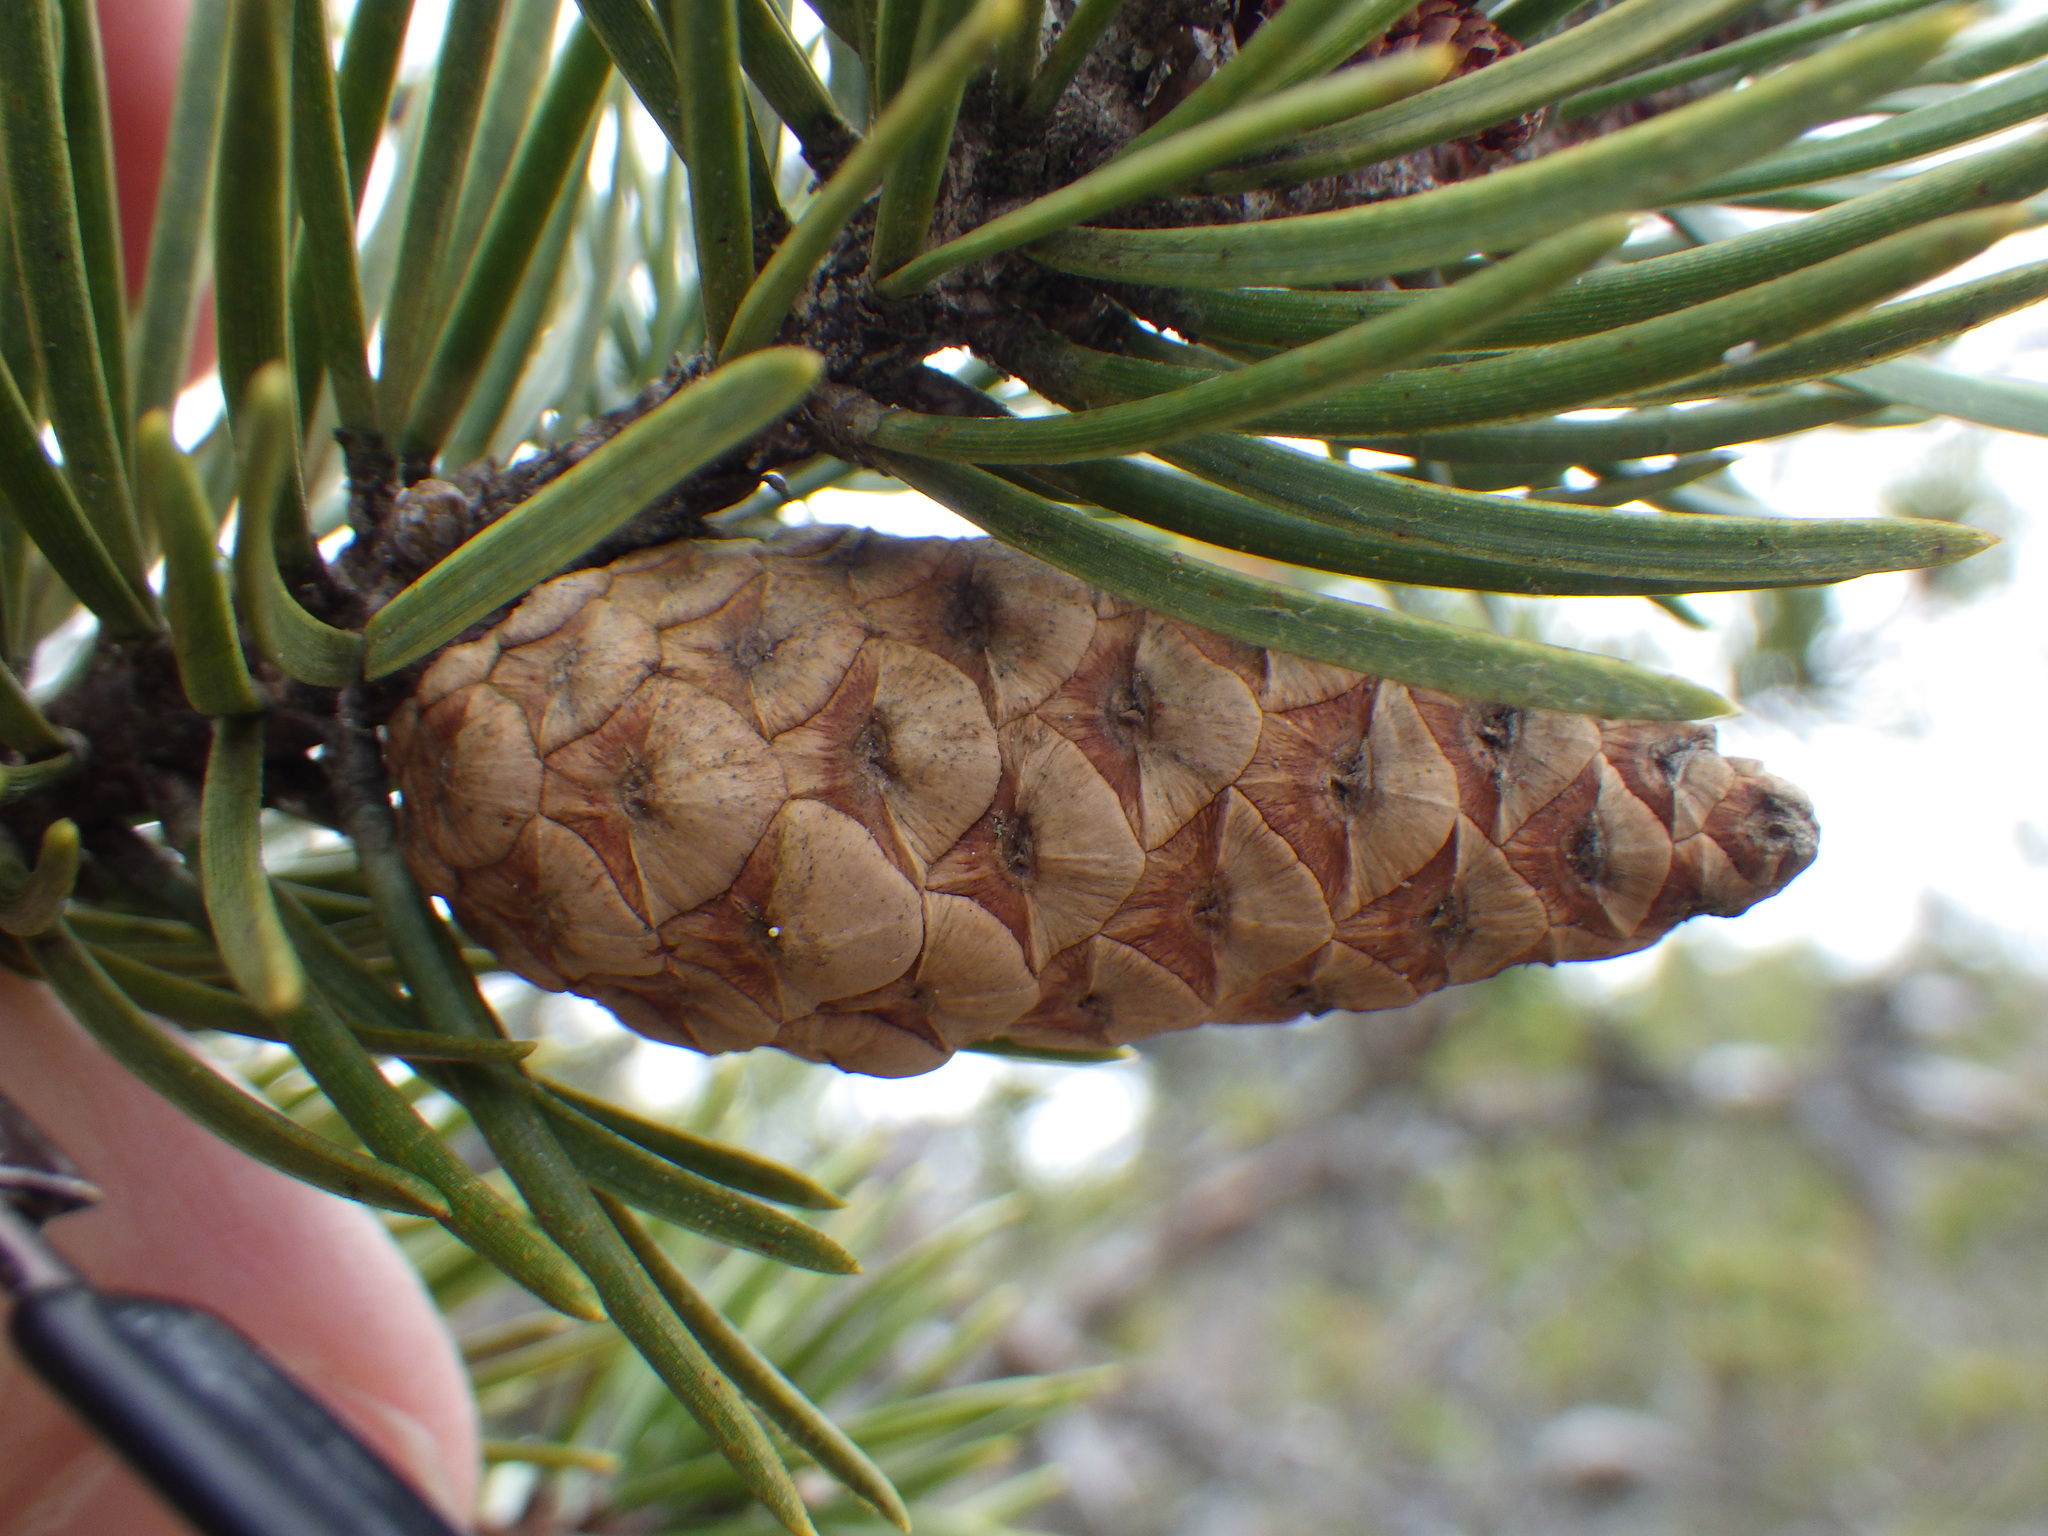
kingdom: Plantae
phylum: Tracheophyta
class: Pinopsida
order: Pinales
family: Pinaceae
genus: Pinus
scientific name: Pinus banksiana
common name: Jack pine
